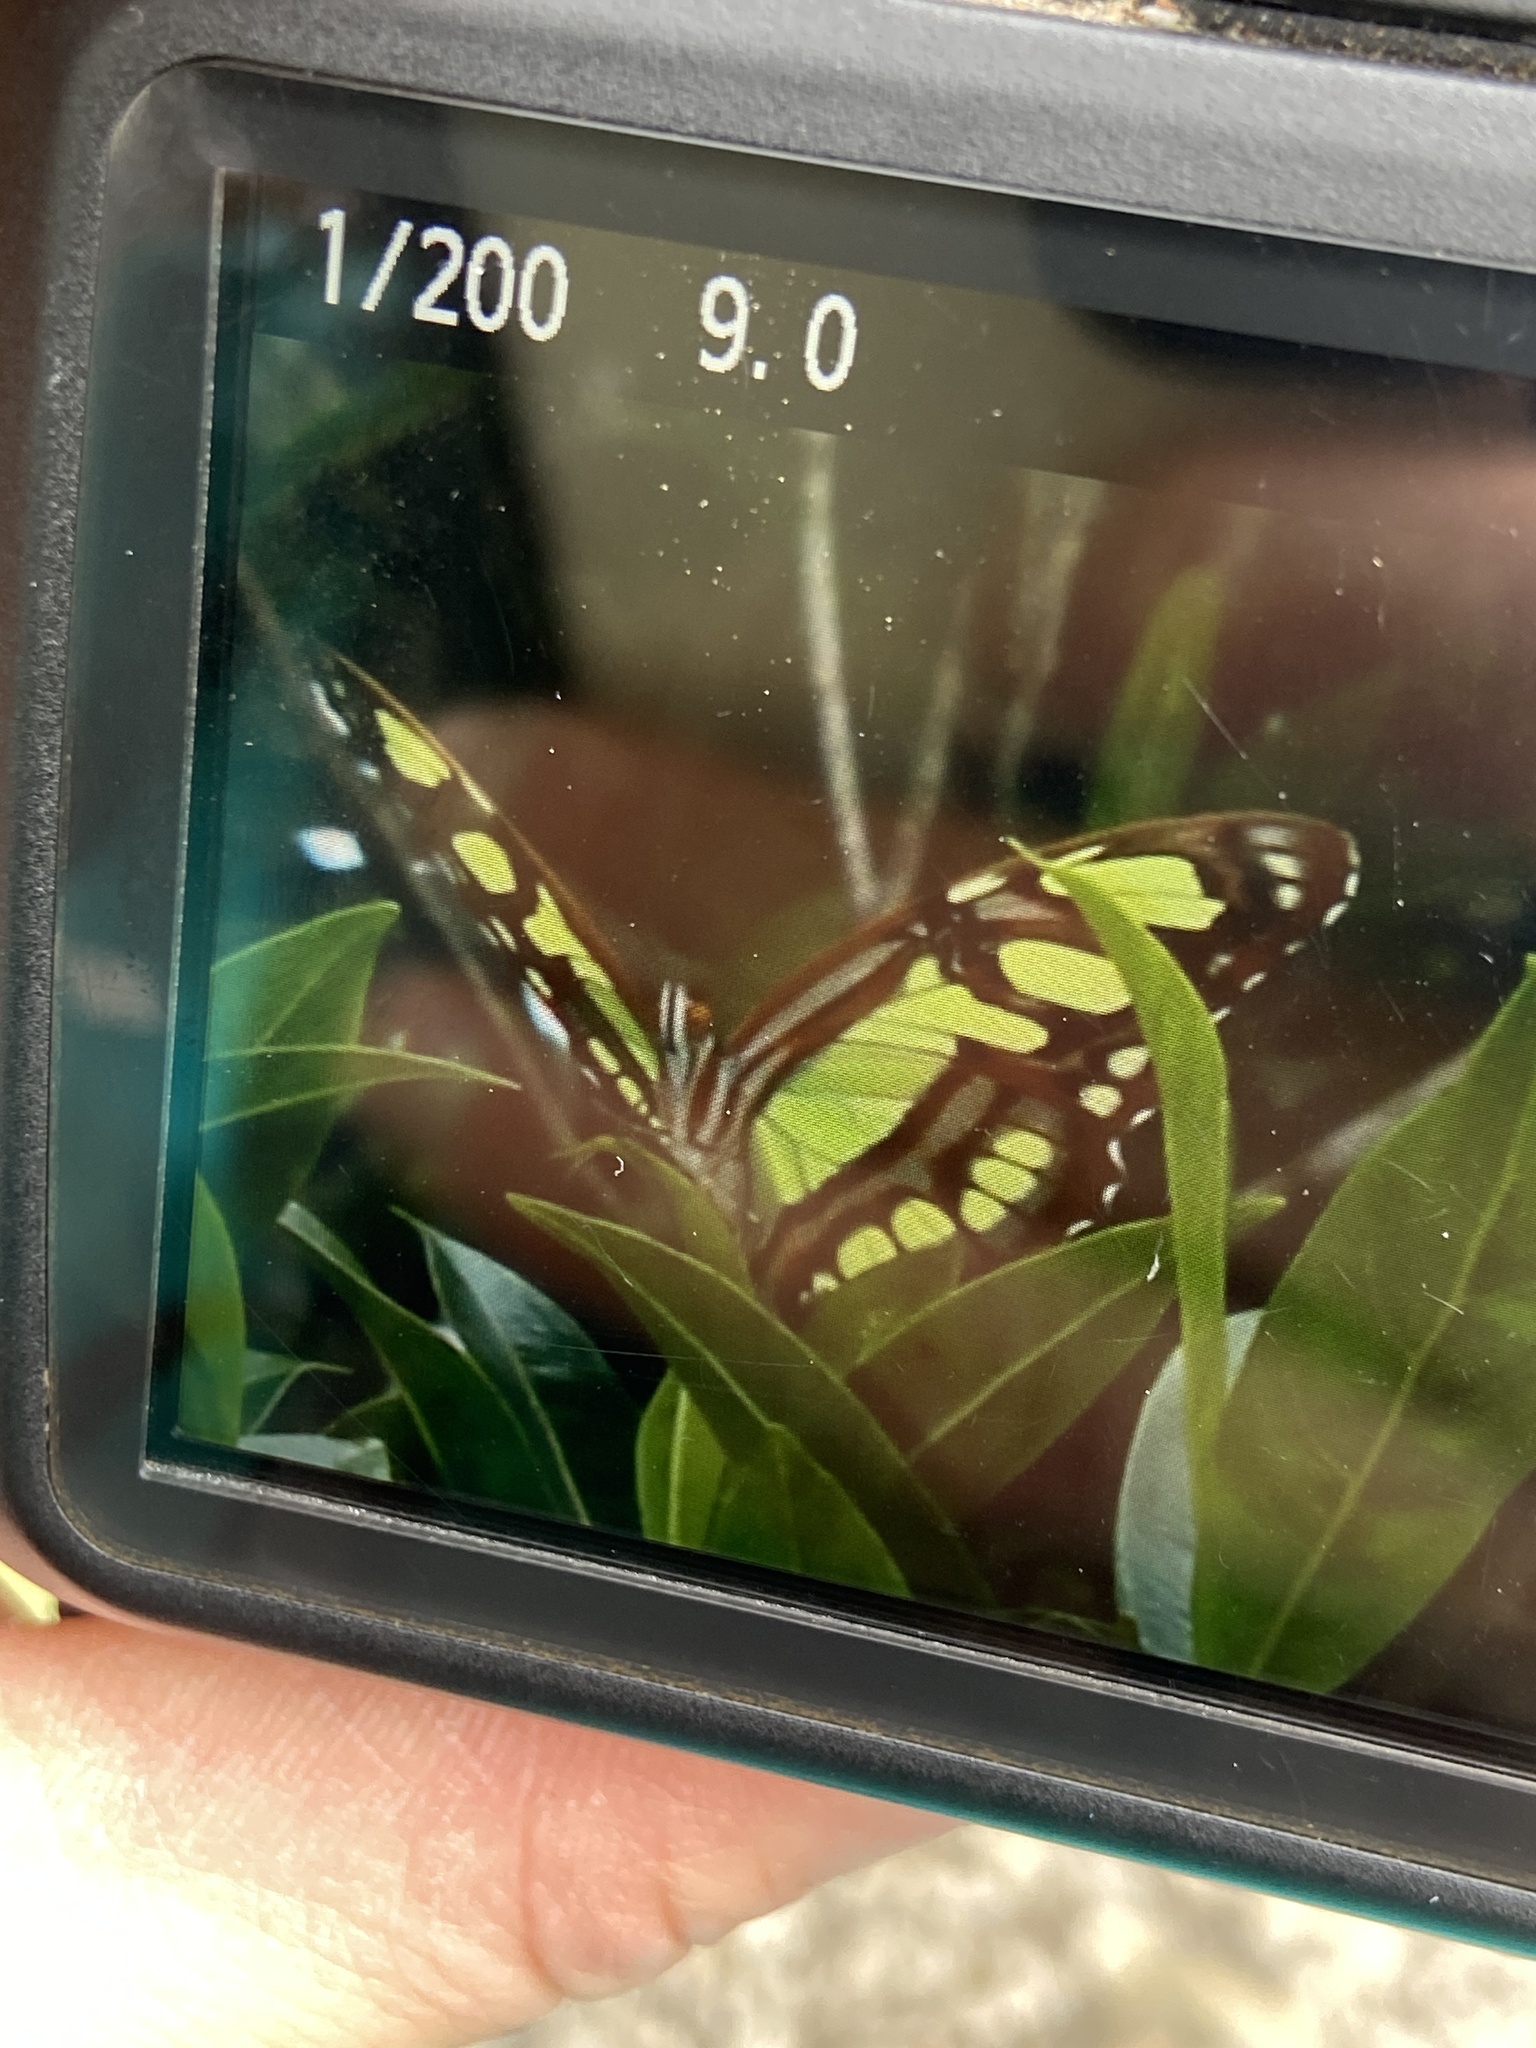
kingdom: Animalia
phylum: Arthropoda
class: Insecta
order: Lepidoptera
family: Nymphalidae
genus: Siproeta
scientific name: Siproeta stelenes
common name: Malachite
